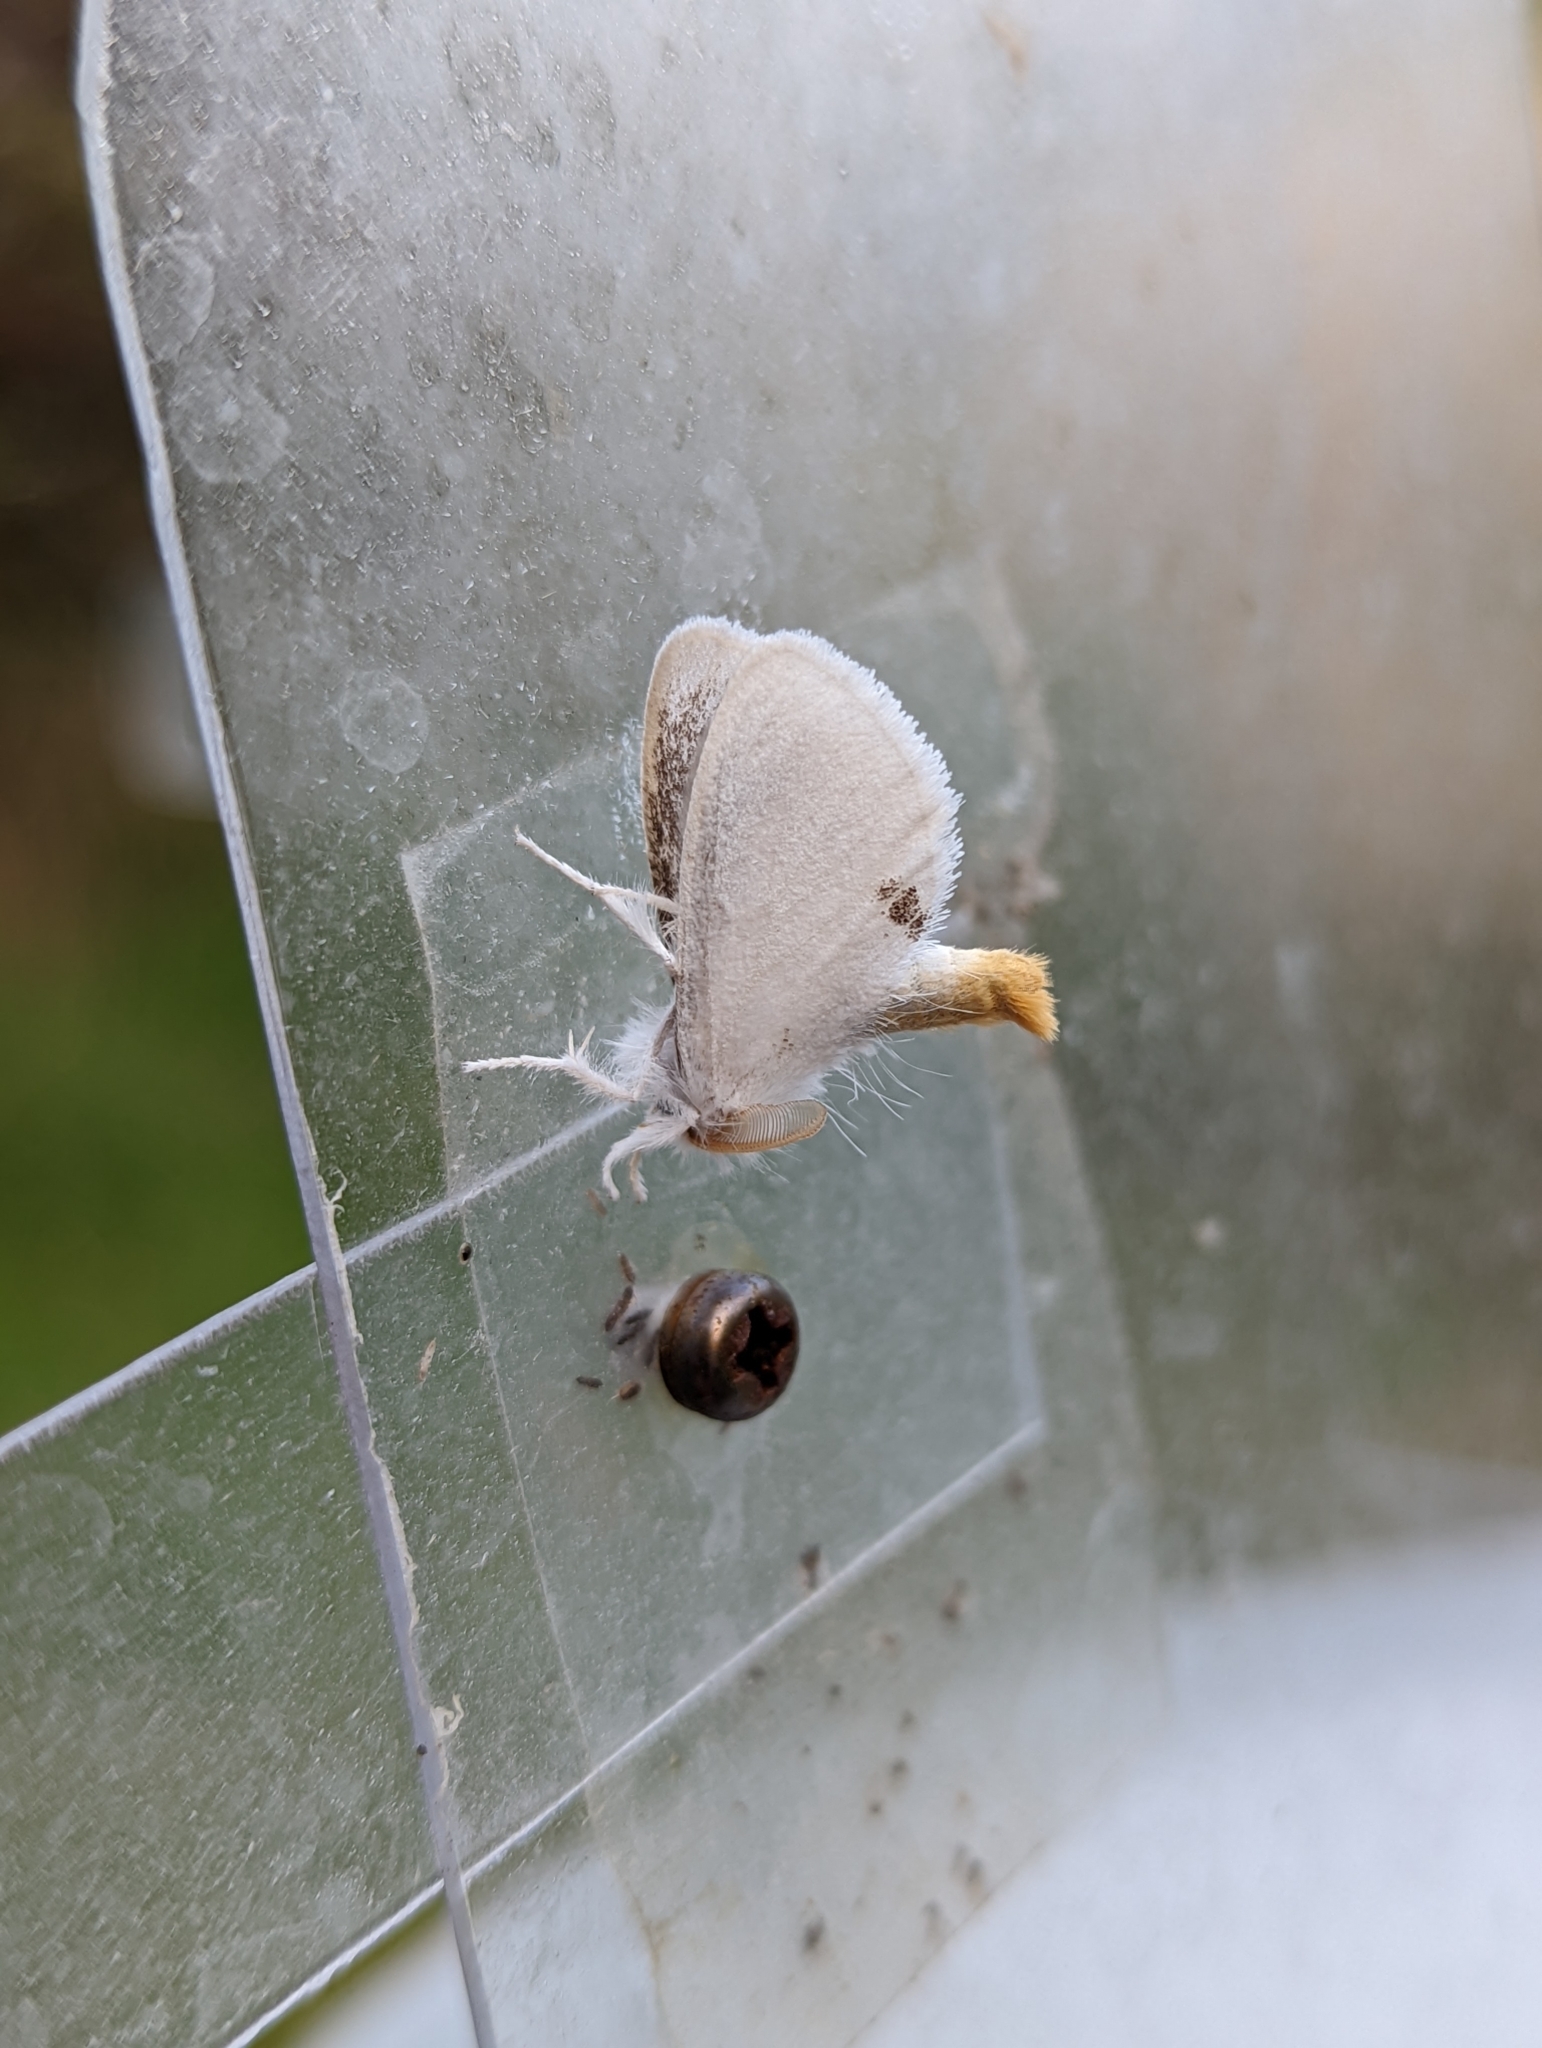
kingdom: Animalia
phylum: Arthropoda
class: Insecta
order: Lepidoptera
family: Erebidae
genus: Sphrageidus
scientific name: Sphrageidus similis
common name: Yellow-tail
